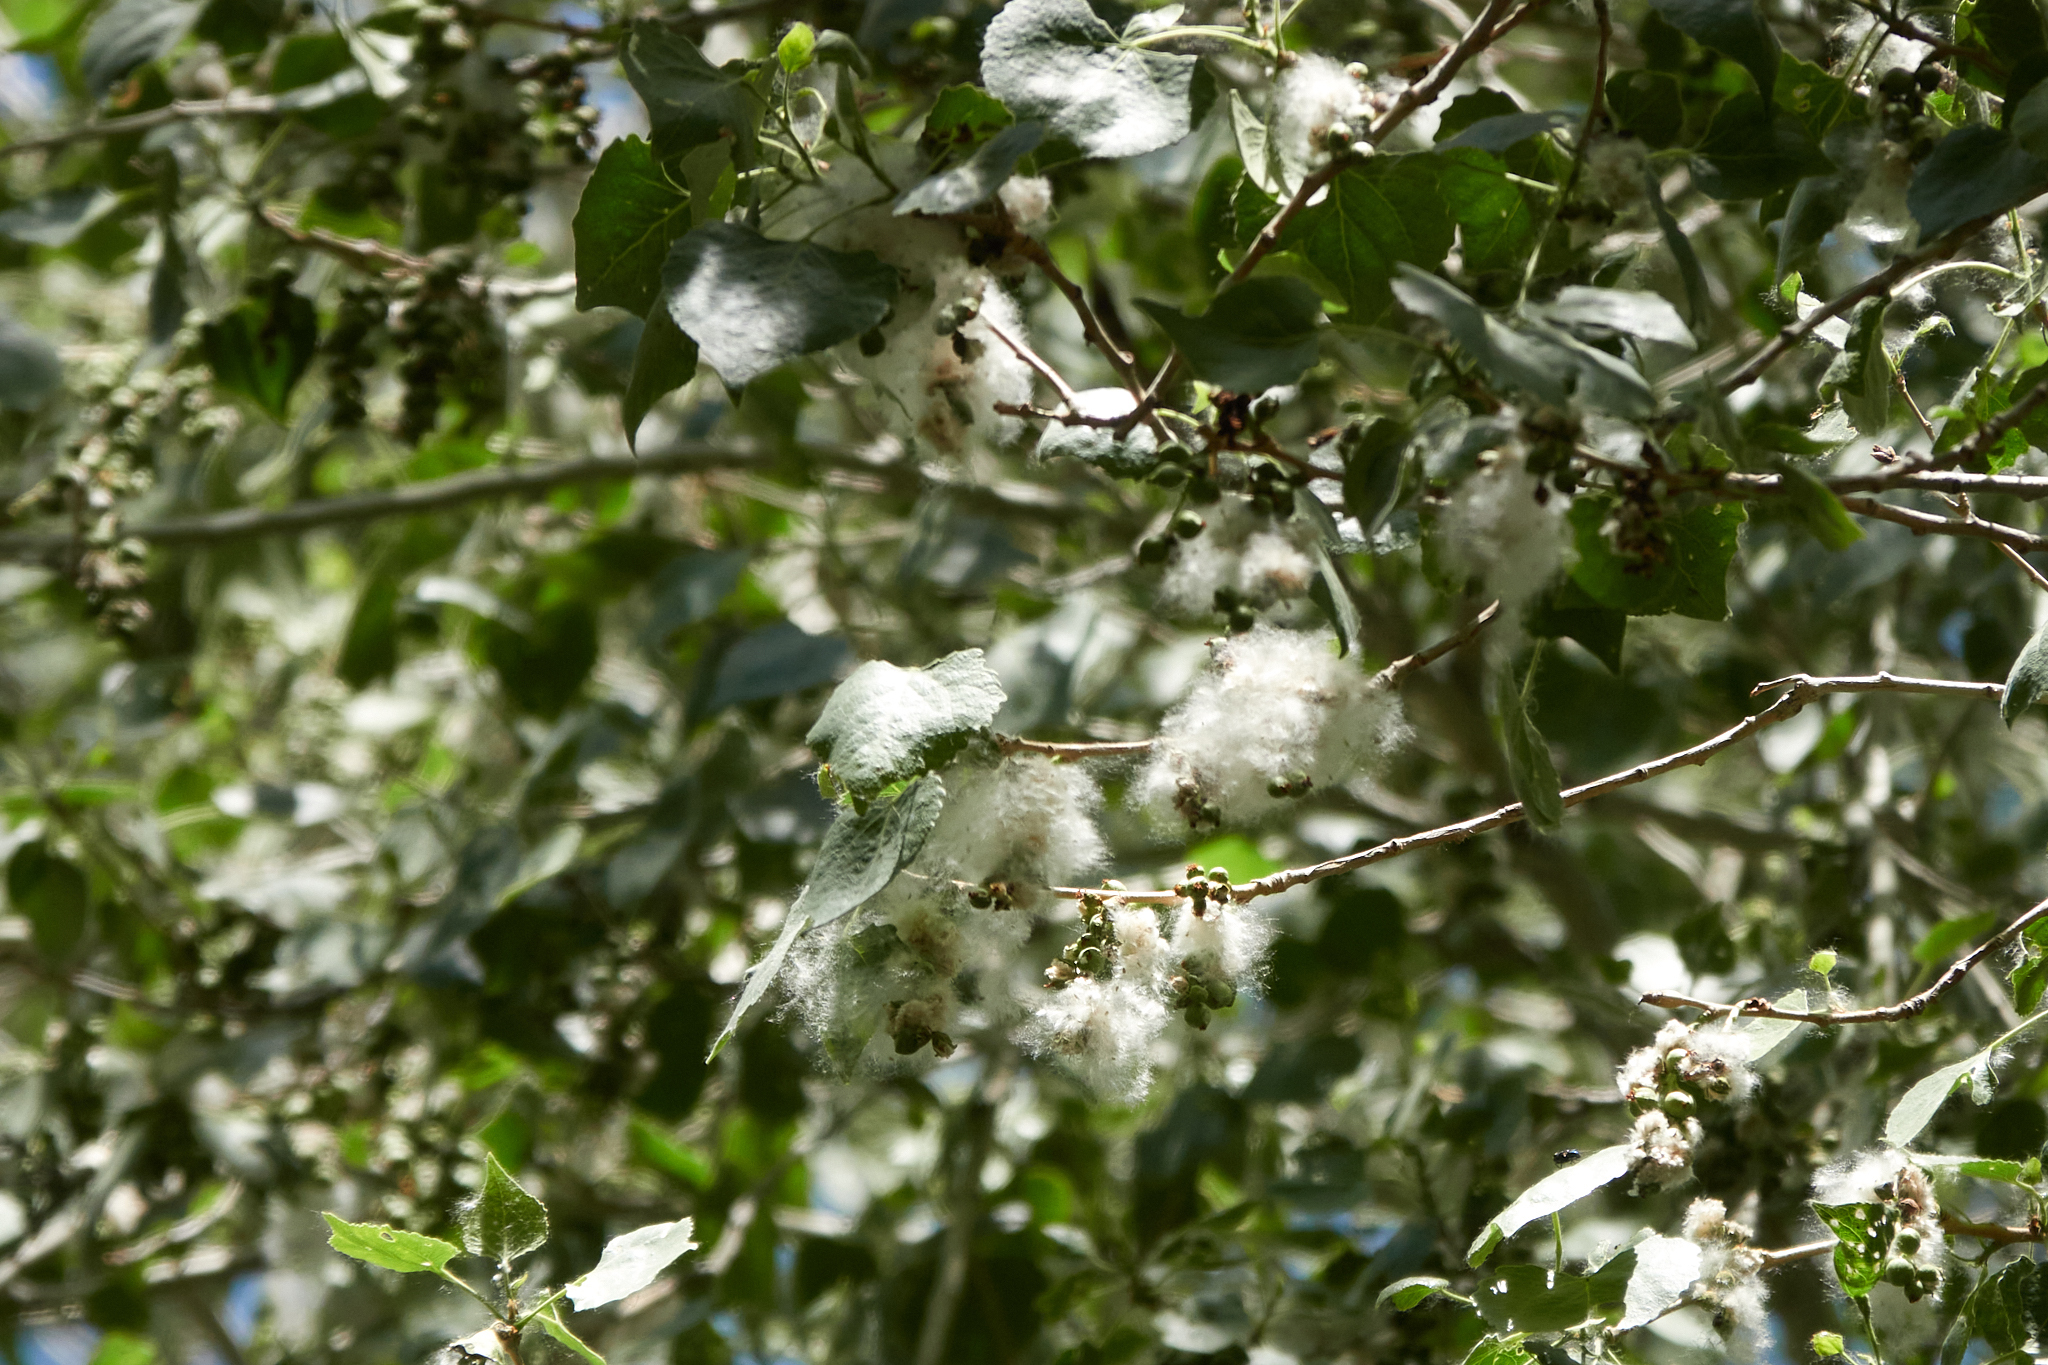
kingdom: Plantae
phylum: Tracheophyta
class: Magnoliopsida
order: Malpighiales
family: Salicaceae
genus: Populus
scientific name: Populus fremontii
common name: Fremont's cottonwood
